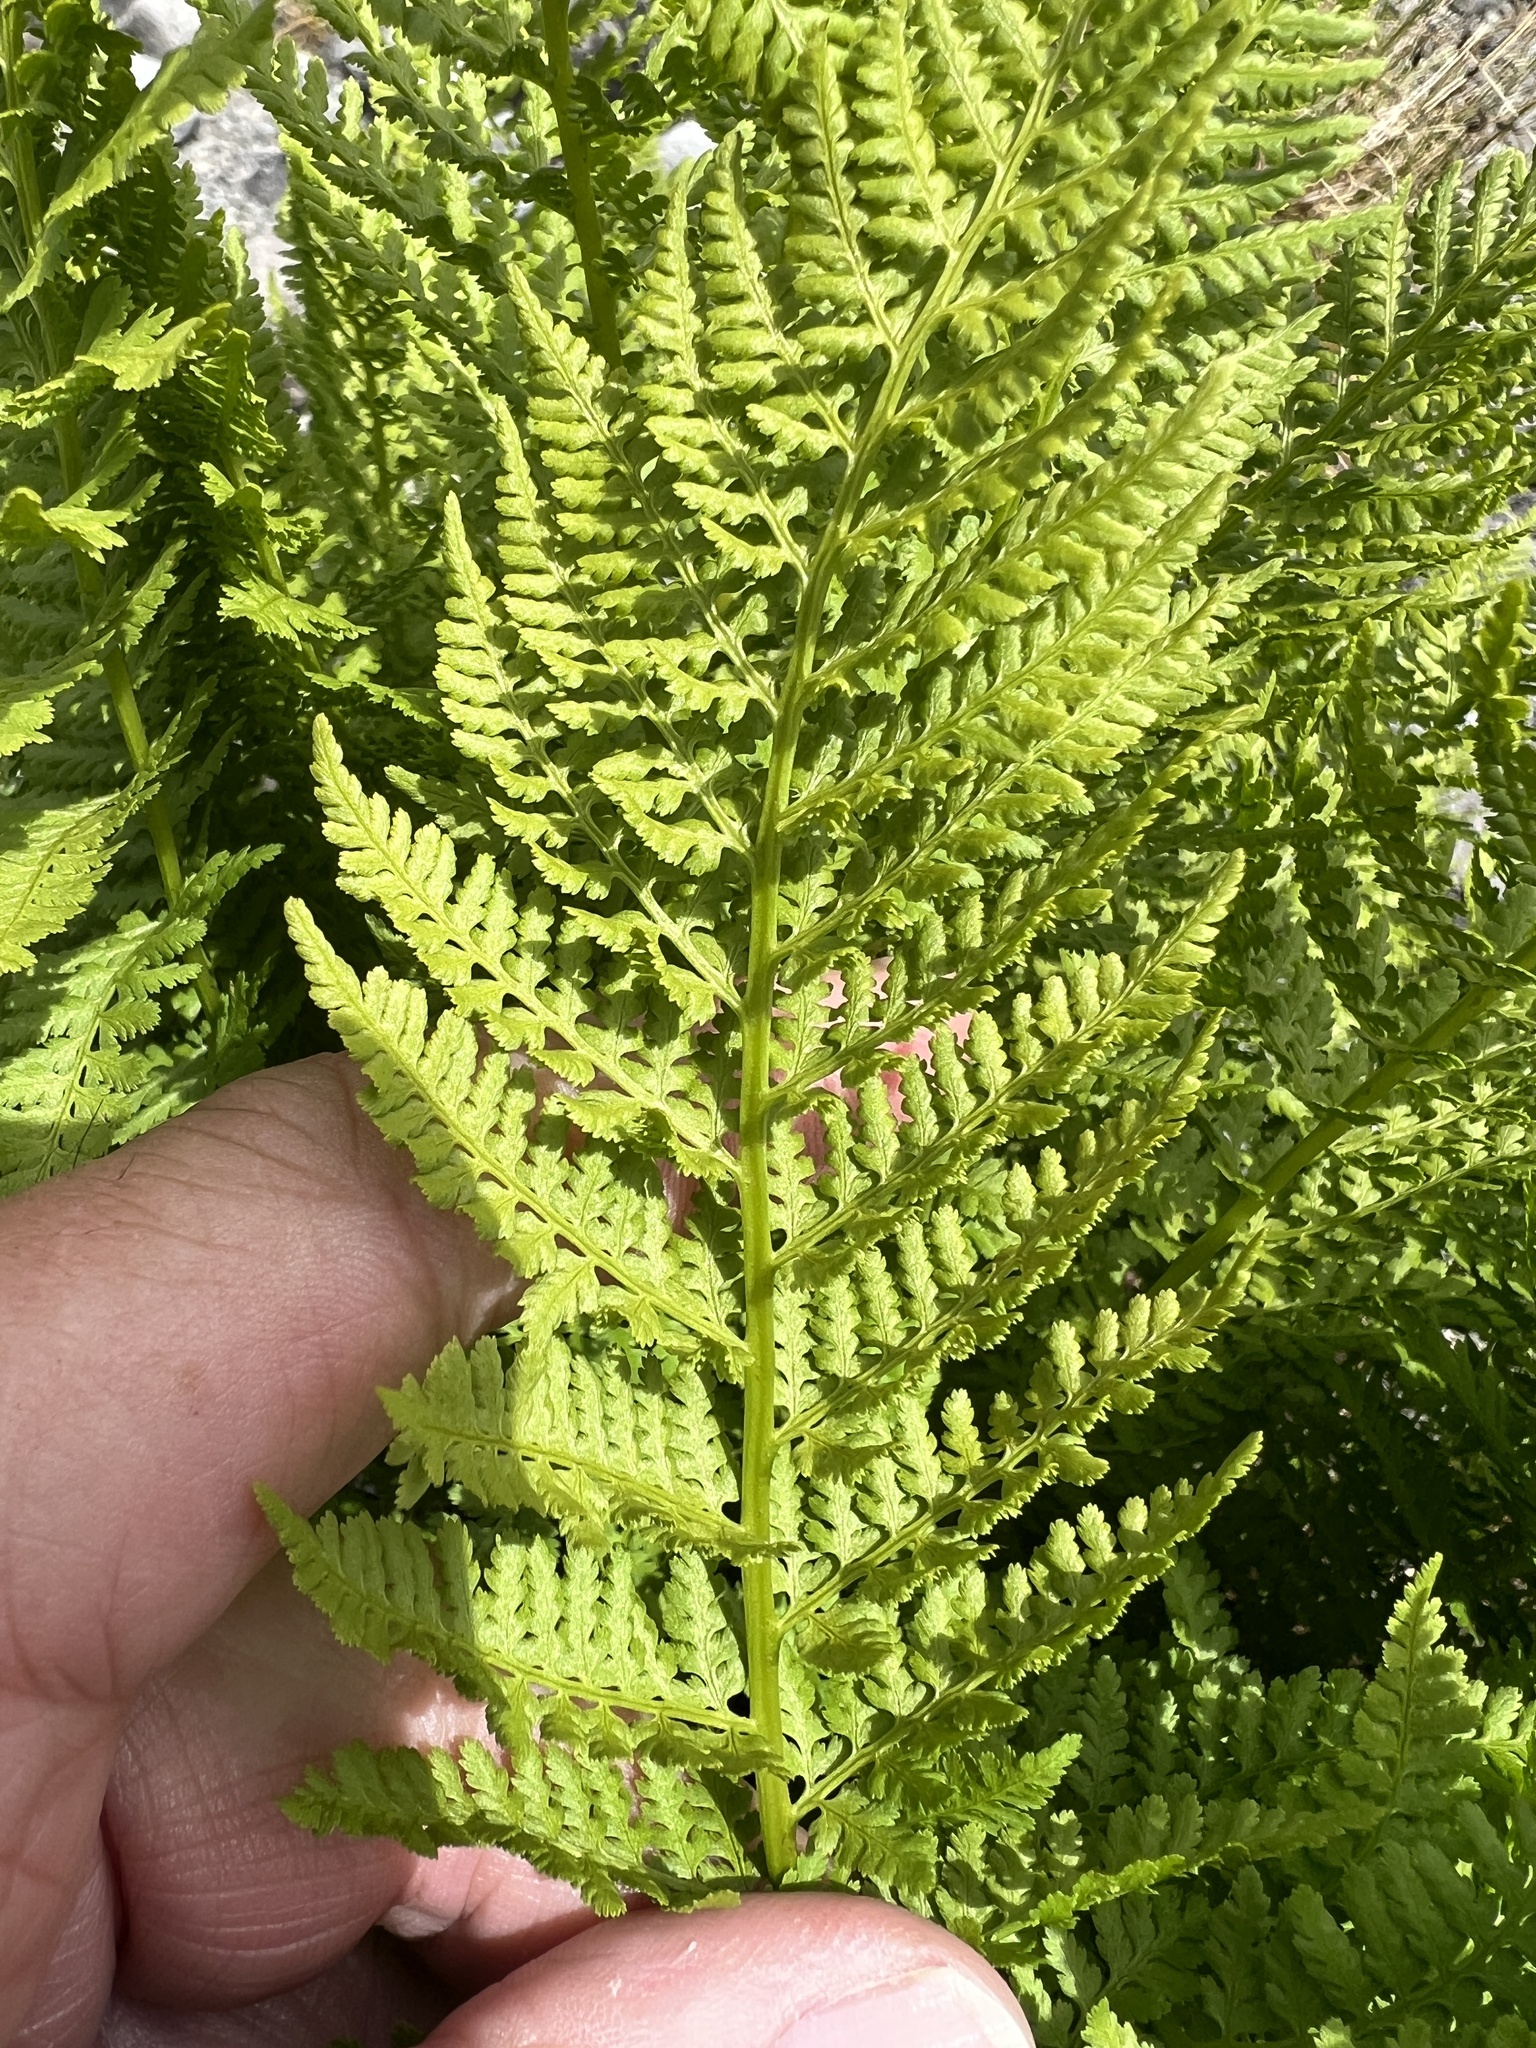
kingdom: Plantae
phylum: Tracheophyta
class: Polypodiopsida
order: Polypodiales
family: Athyriaceae
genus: Athyrium
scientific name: Athyrium americanum
